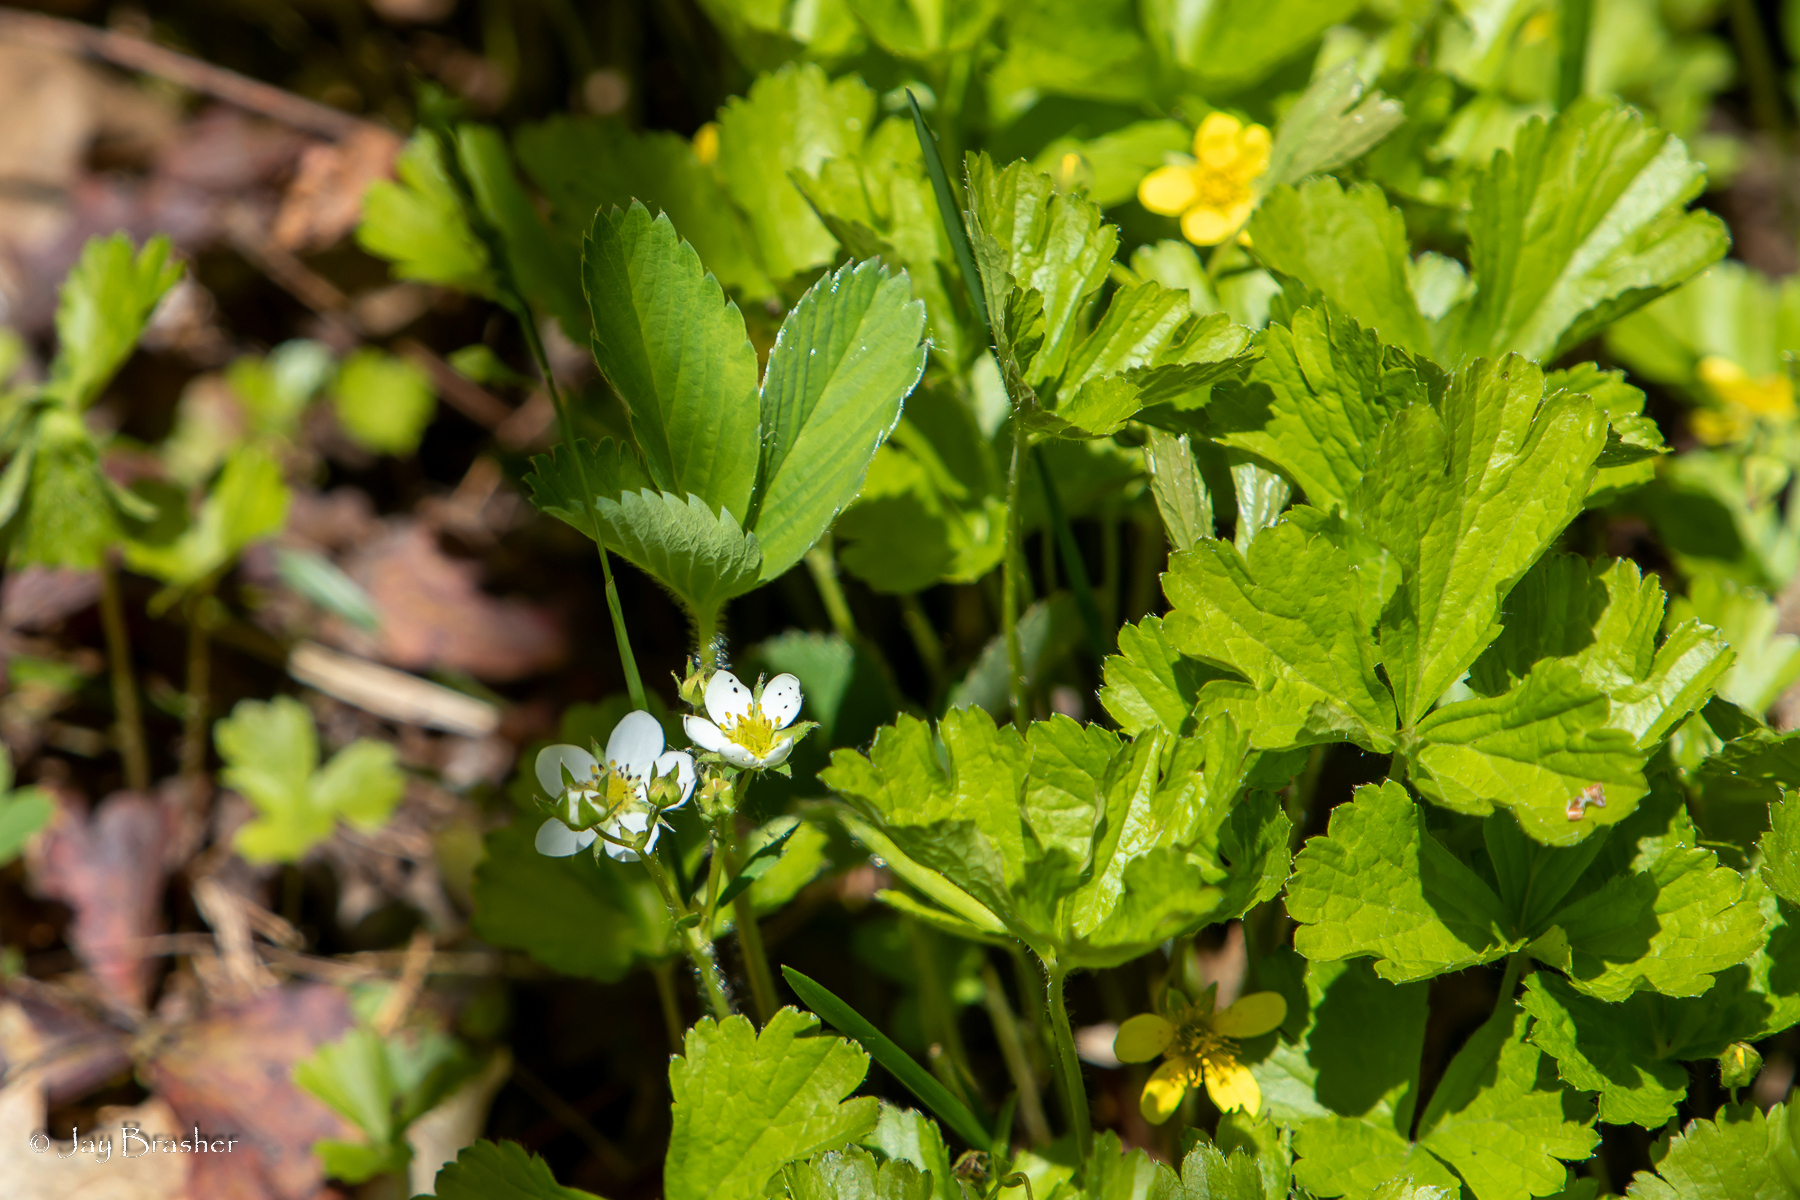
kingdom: Plantae
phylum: Tracheophyta
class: Magnoliopsida
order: Rosales
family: Rosaceae
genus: Fragaria
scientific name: Fragaria virginiana
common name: Thickleaved wild strawberry
